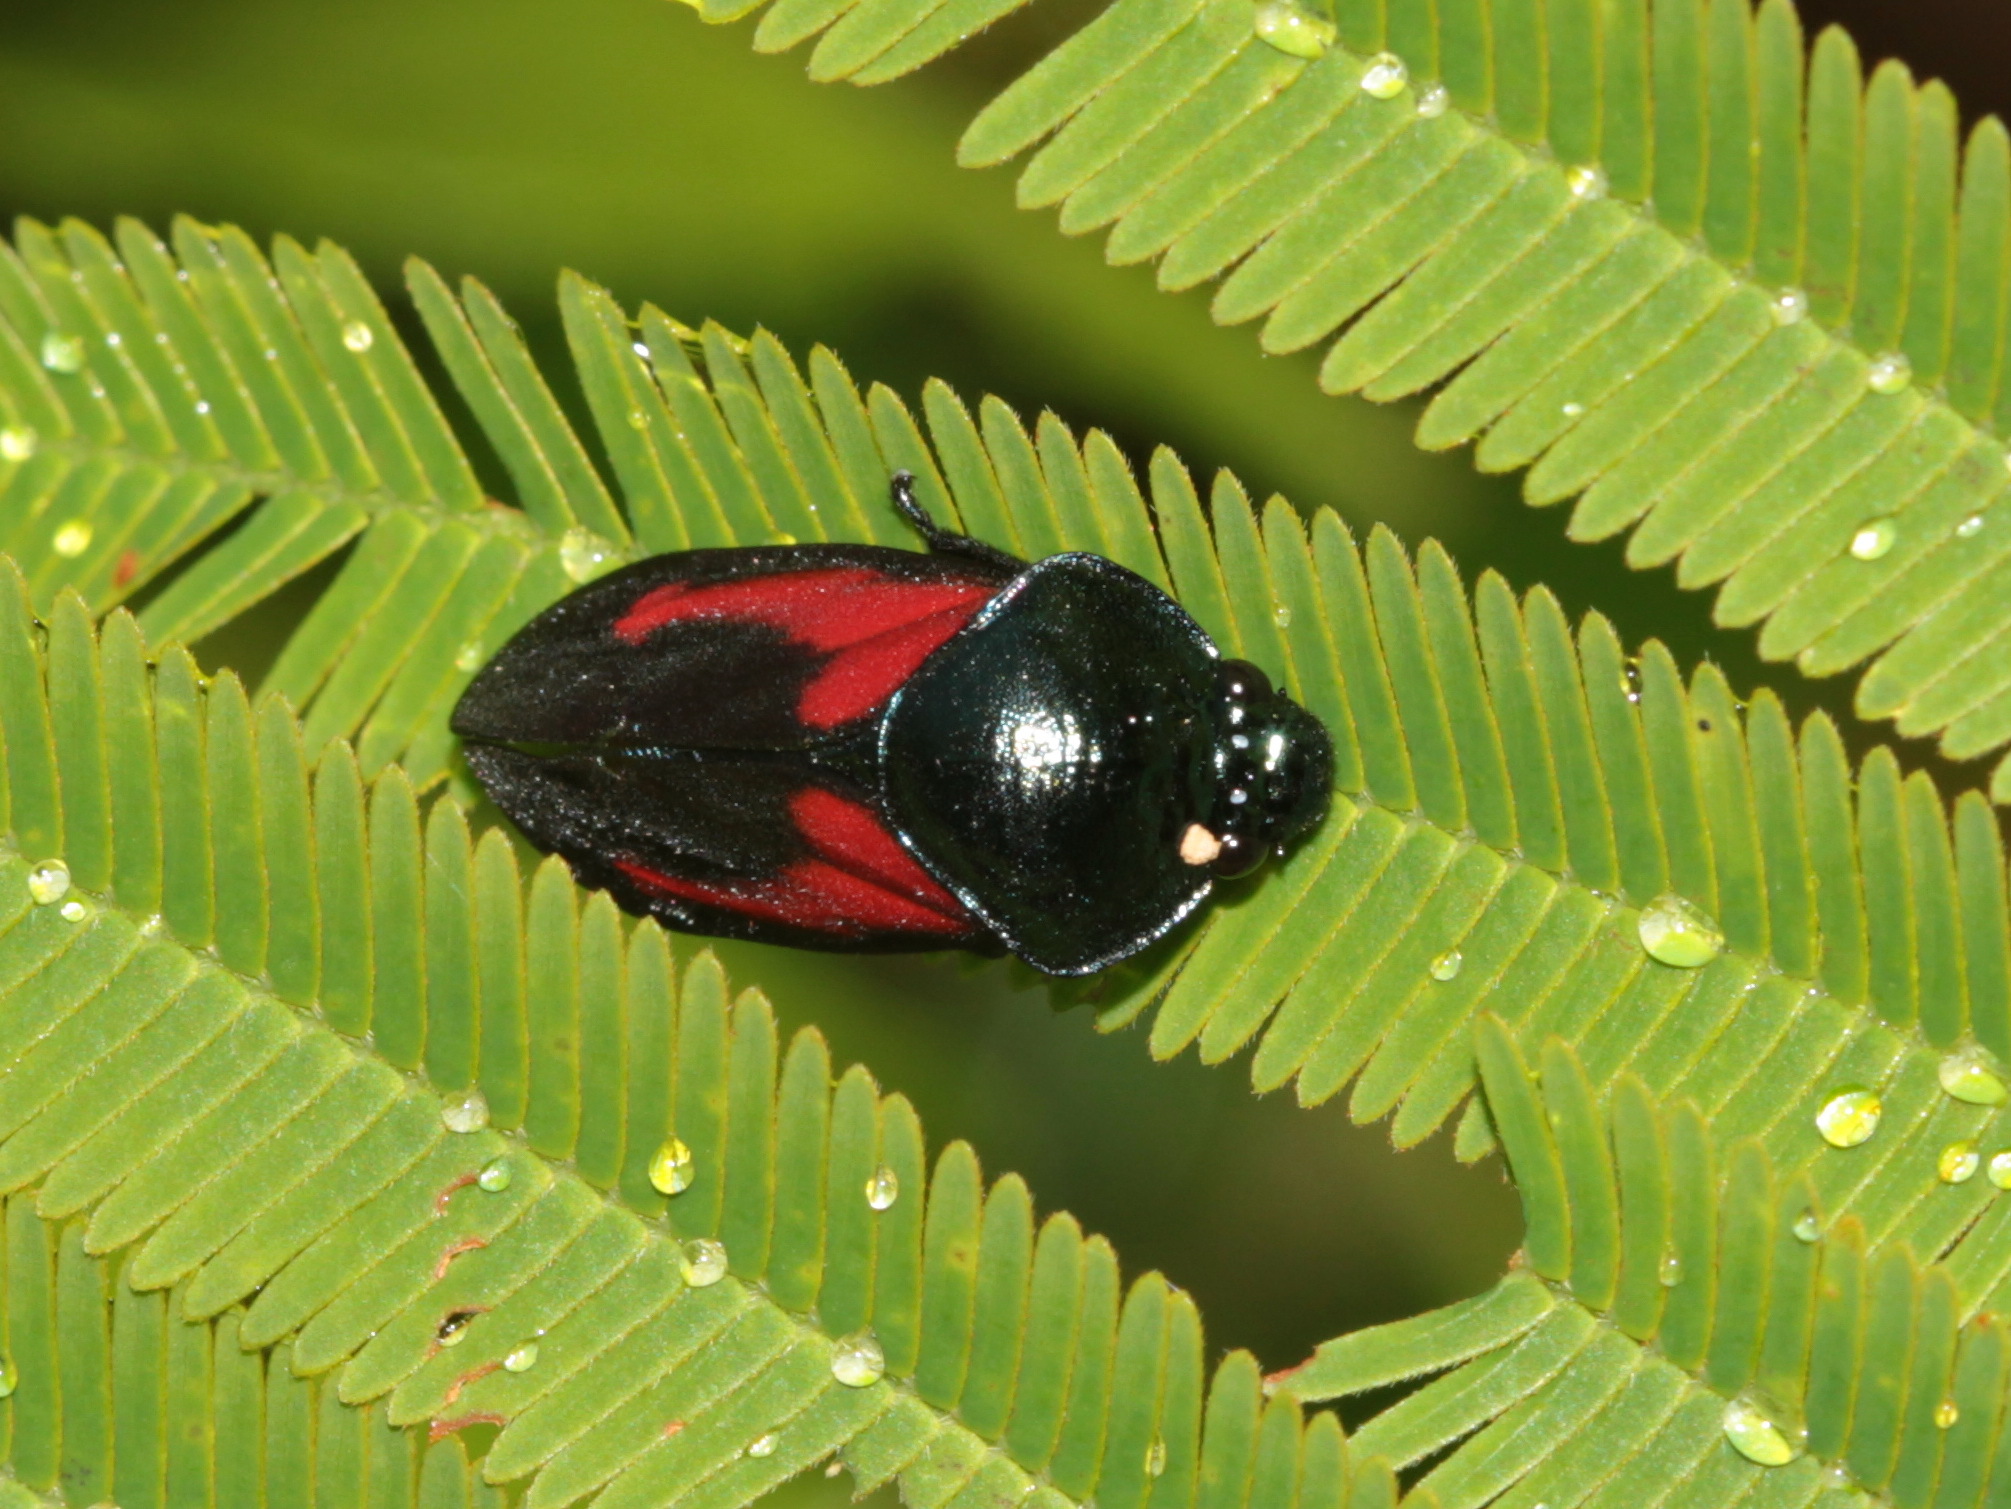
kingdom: Animalia
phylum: Arthropoda
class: Insecta
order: Hemiptera
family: Cercopidae
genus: Cosmoscarta
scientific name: Cosmoscarta gravelyi
